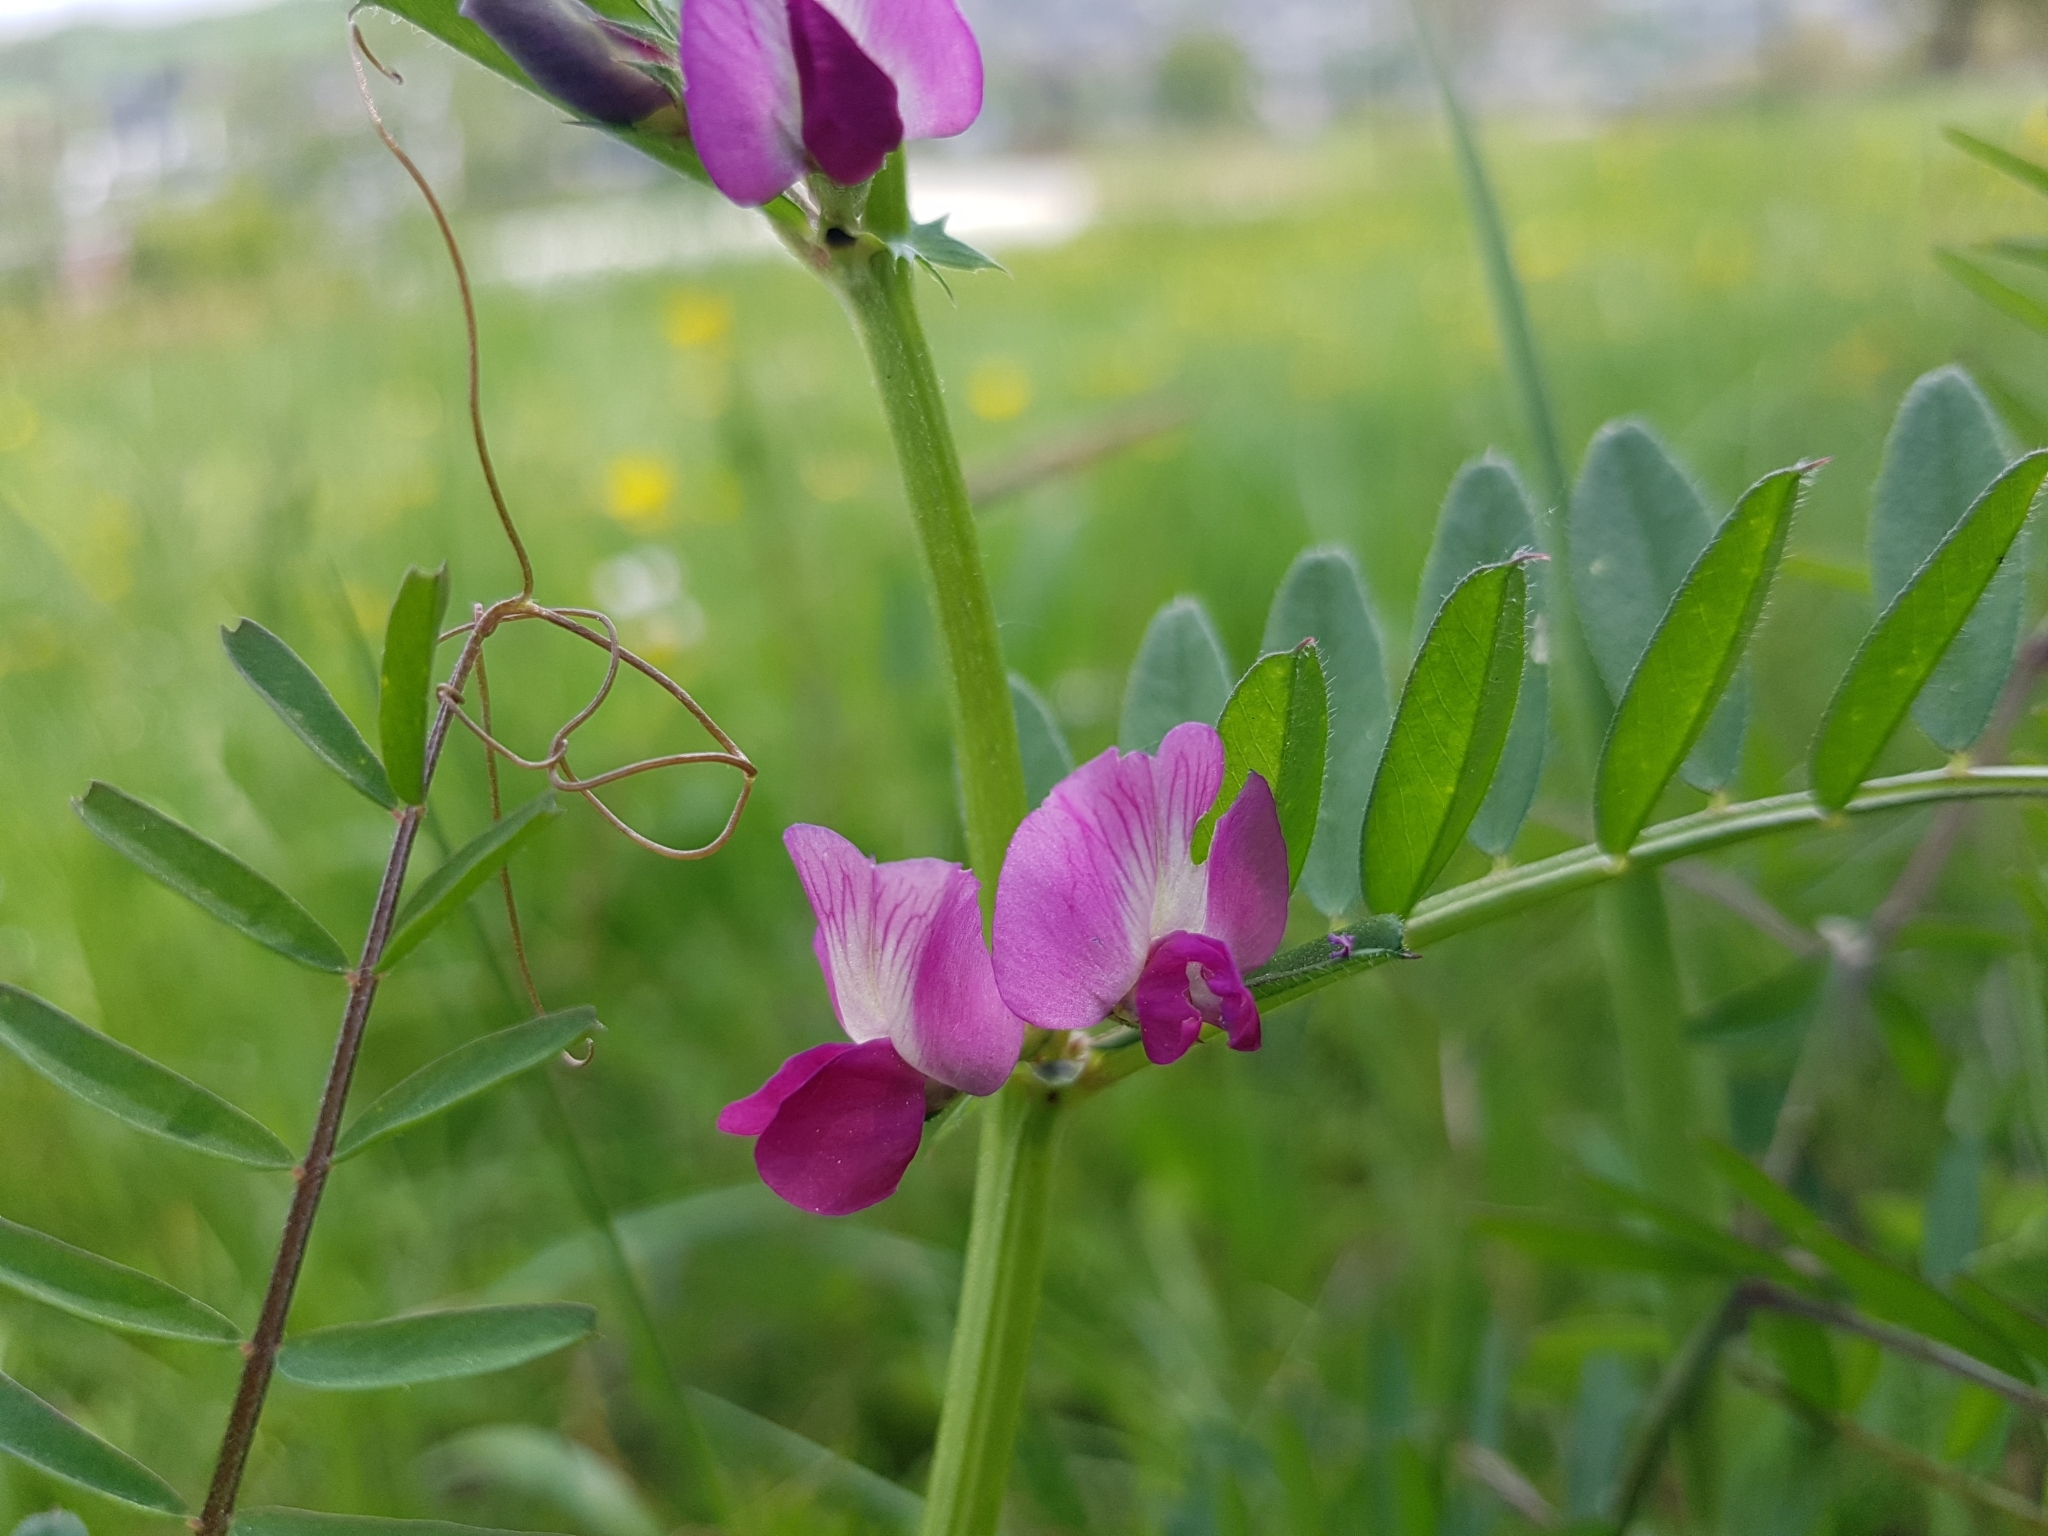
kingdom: Plantae
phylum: Tracheophyta
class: Magnoliopsida
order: Fabales
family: Fabaceae
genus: Vicia
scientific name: Vicia sativa
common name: Garden vetch
